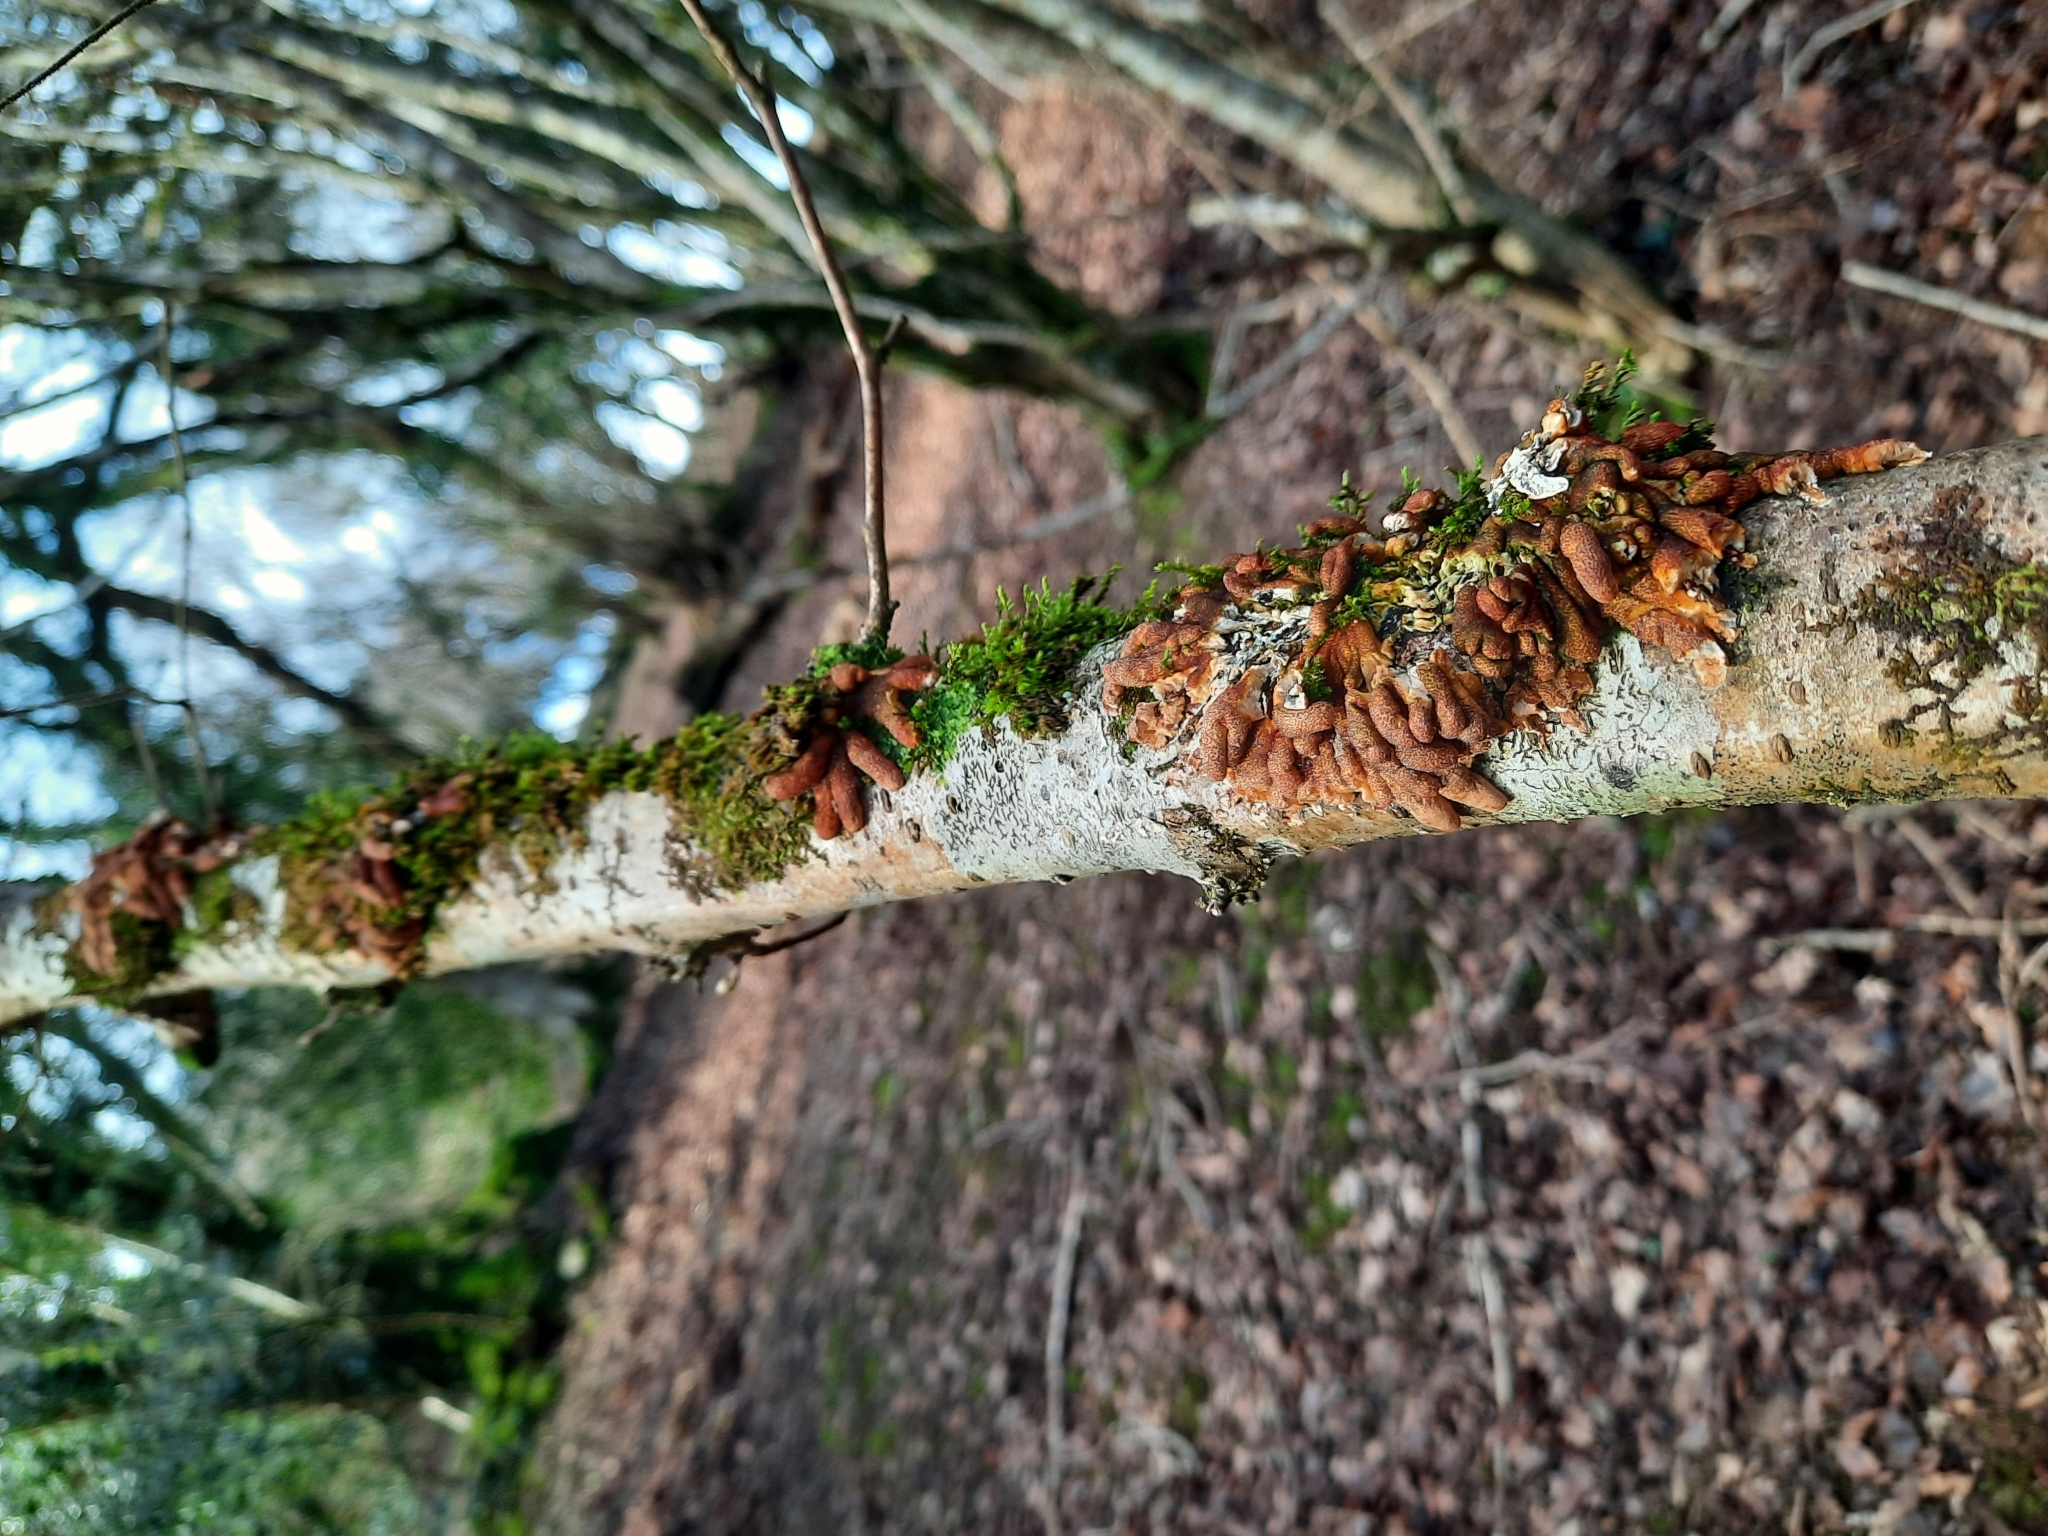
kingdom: Fungi
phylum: Ascomycota
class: Sordariomycetes
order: Hypocreales
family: Hypocreaceae
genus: Hypocreopsis
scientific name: Hypocreopsis rhododendri
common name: Hazel gloves
